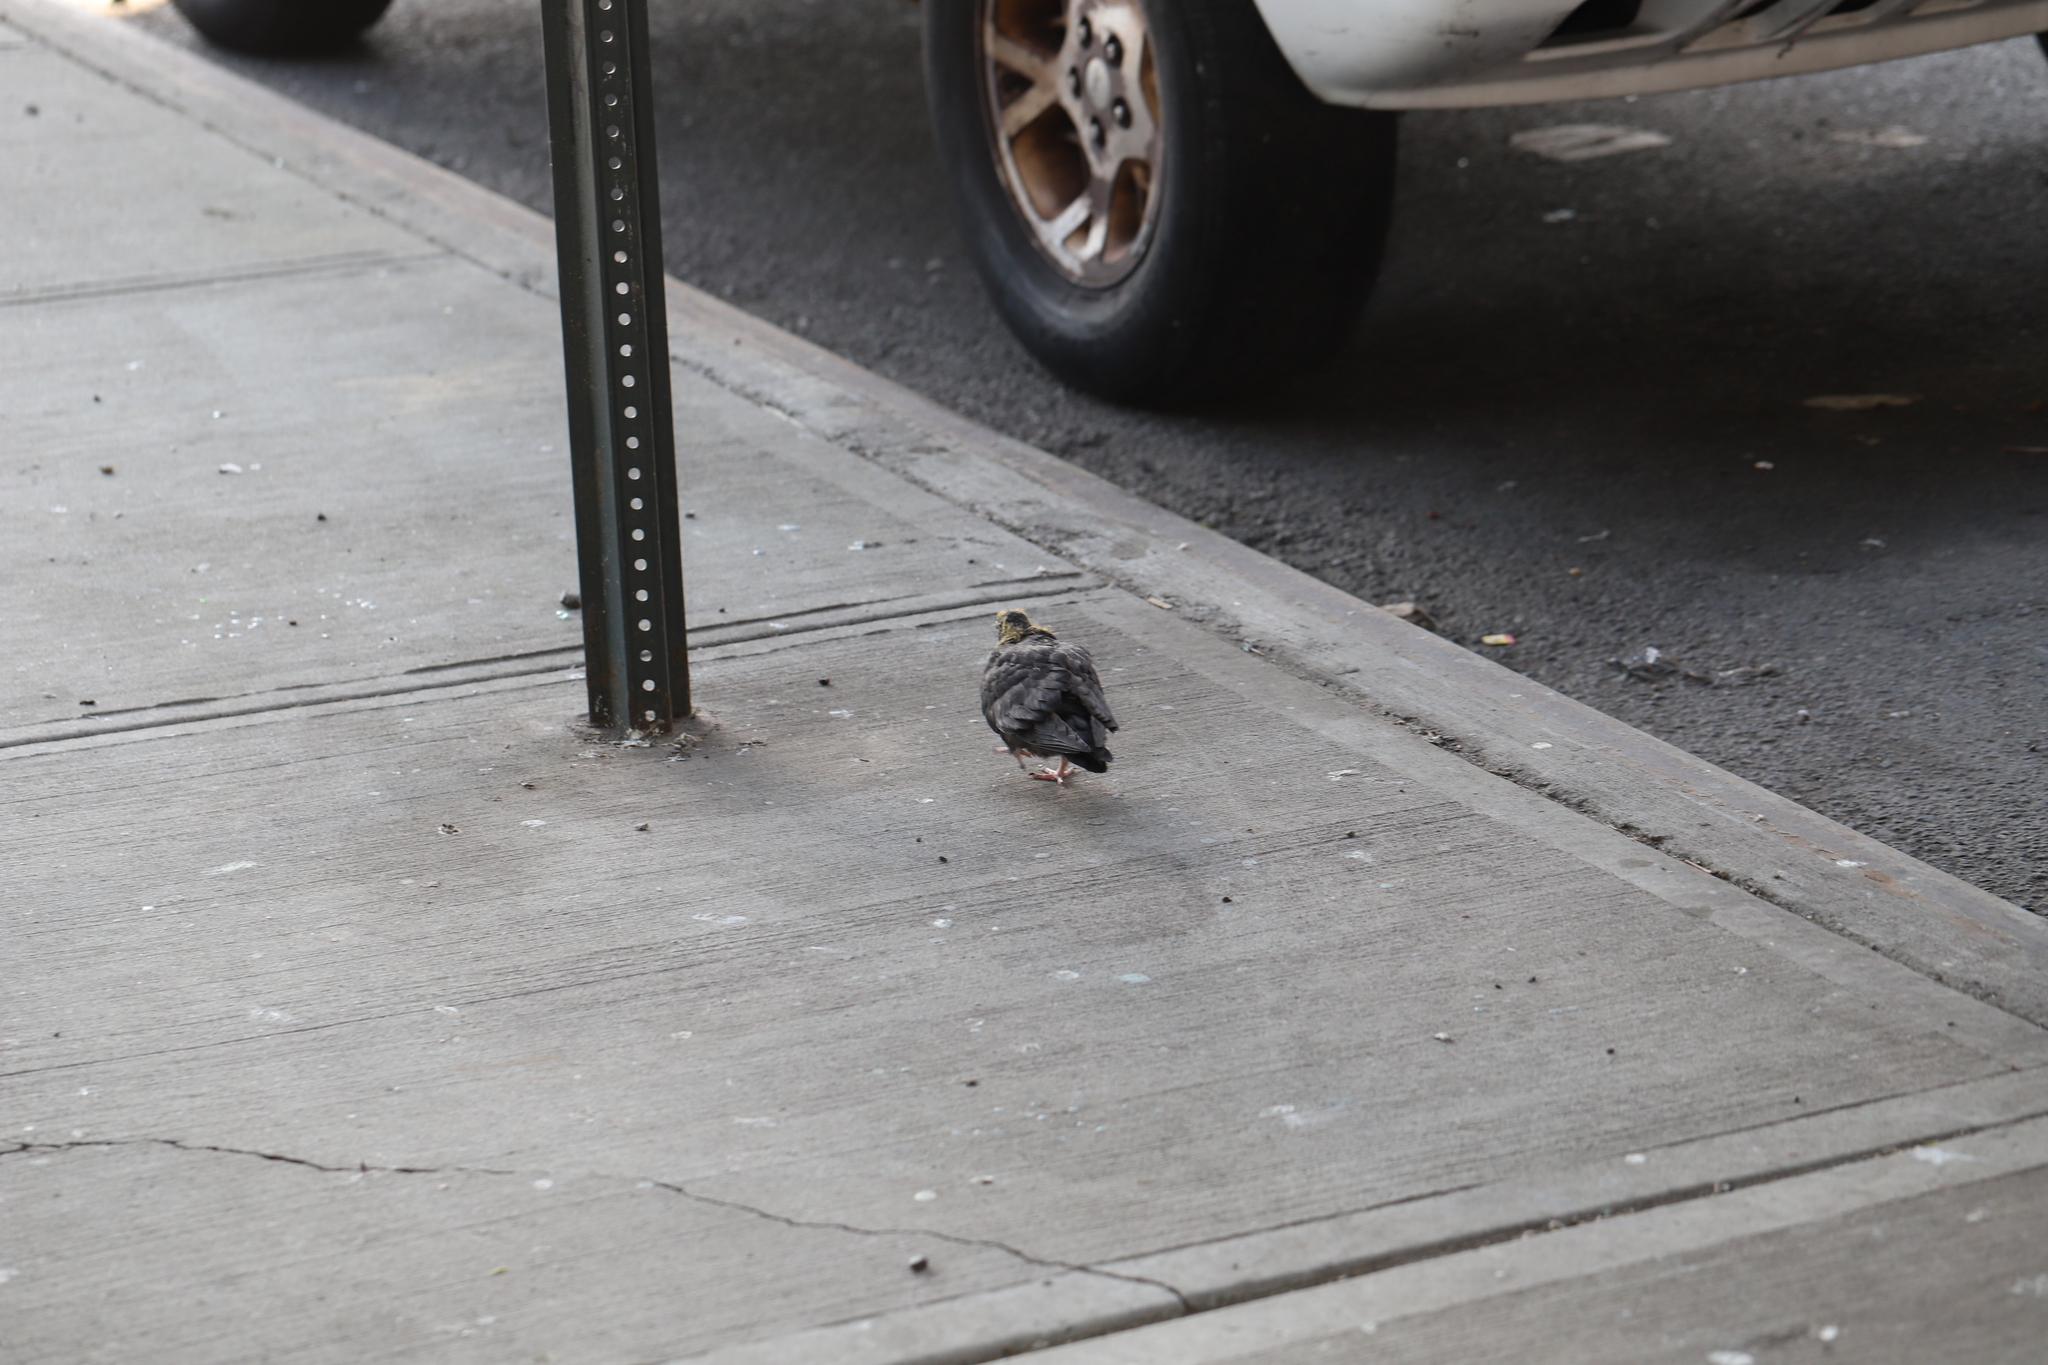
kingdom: Animalia
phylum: Chordata
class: Aves
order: Columbiformes
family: Columbidae
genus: Columba
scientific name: Columba livia
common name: Rock pigeon
